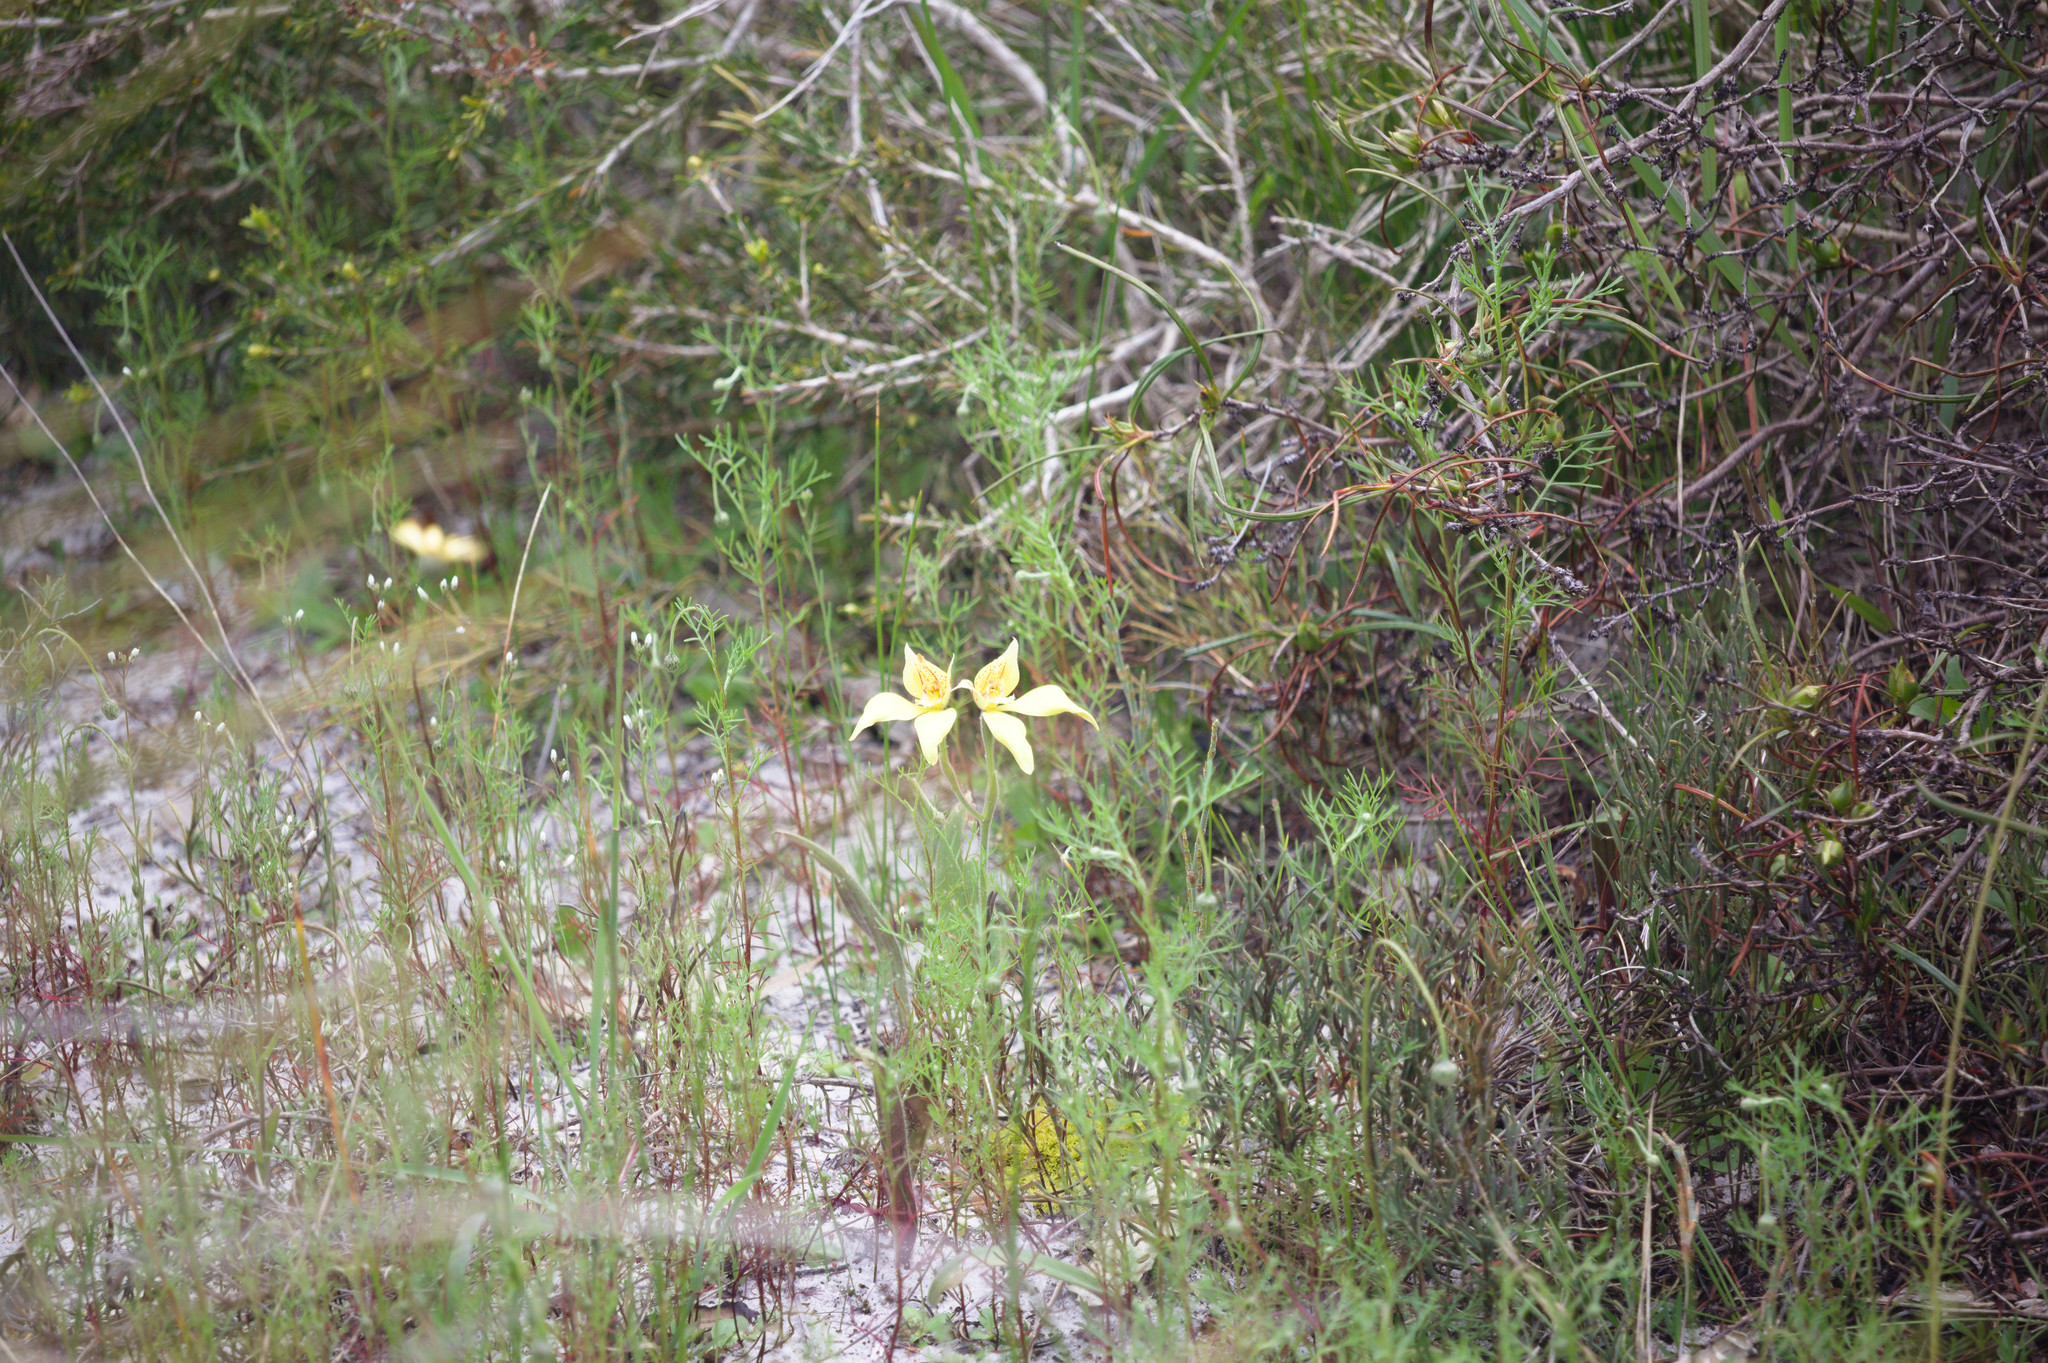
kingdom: Plantae
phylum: Tracheophyta
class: Liliopsida
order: Asparagales
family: Orchidaceae
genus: Caladenia
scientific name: Caladenia flava
